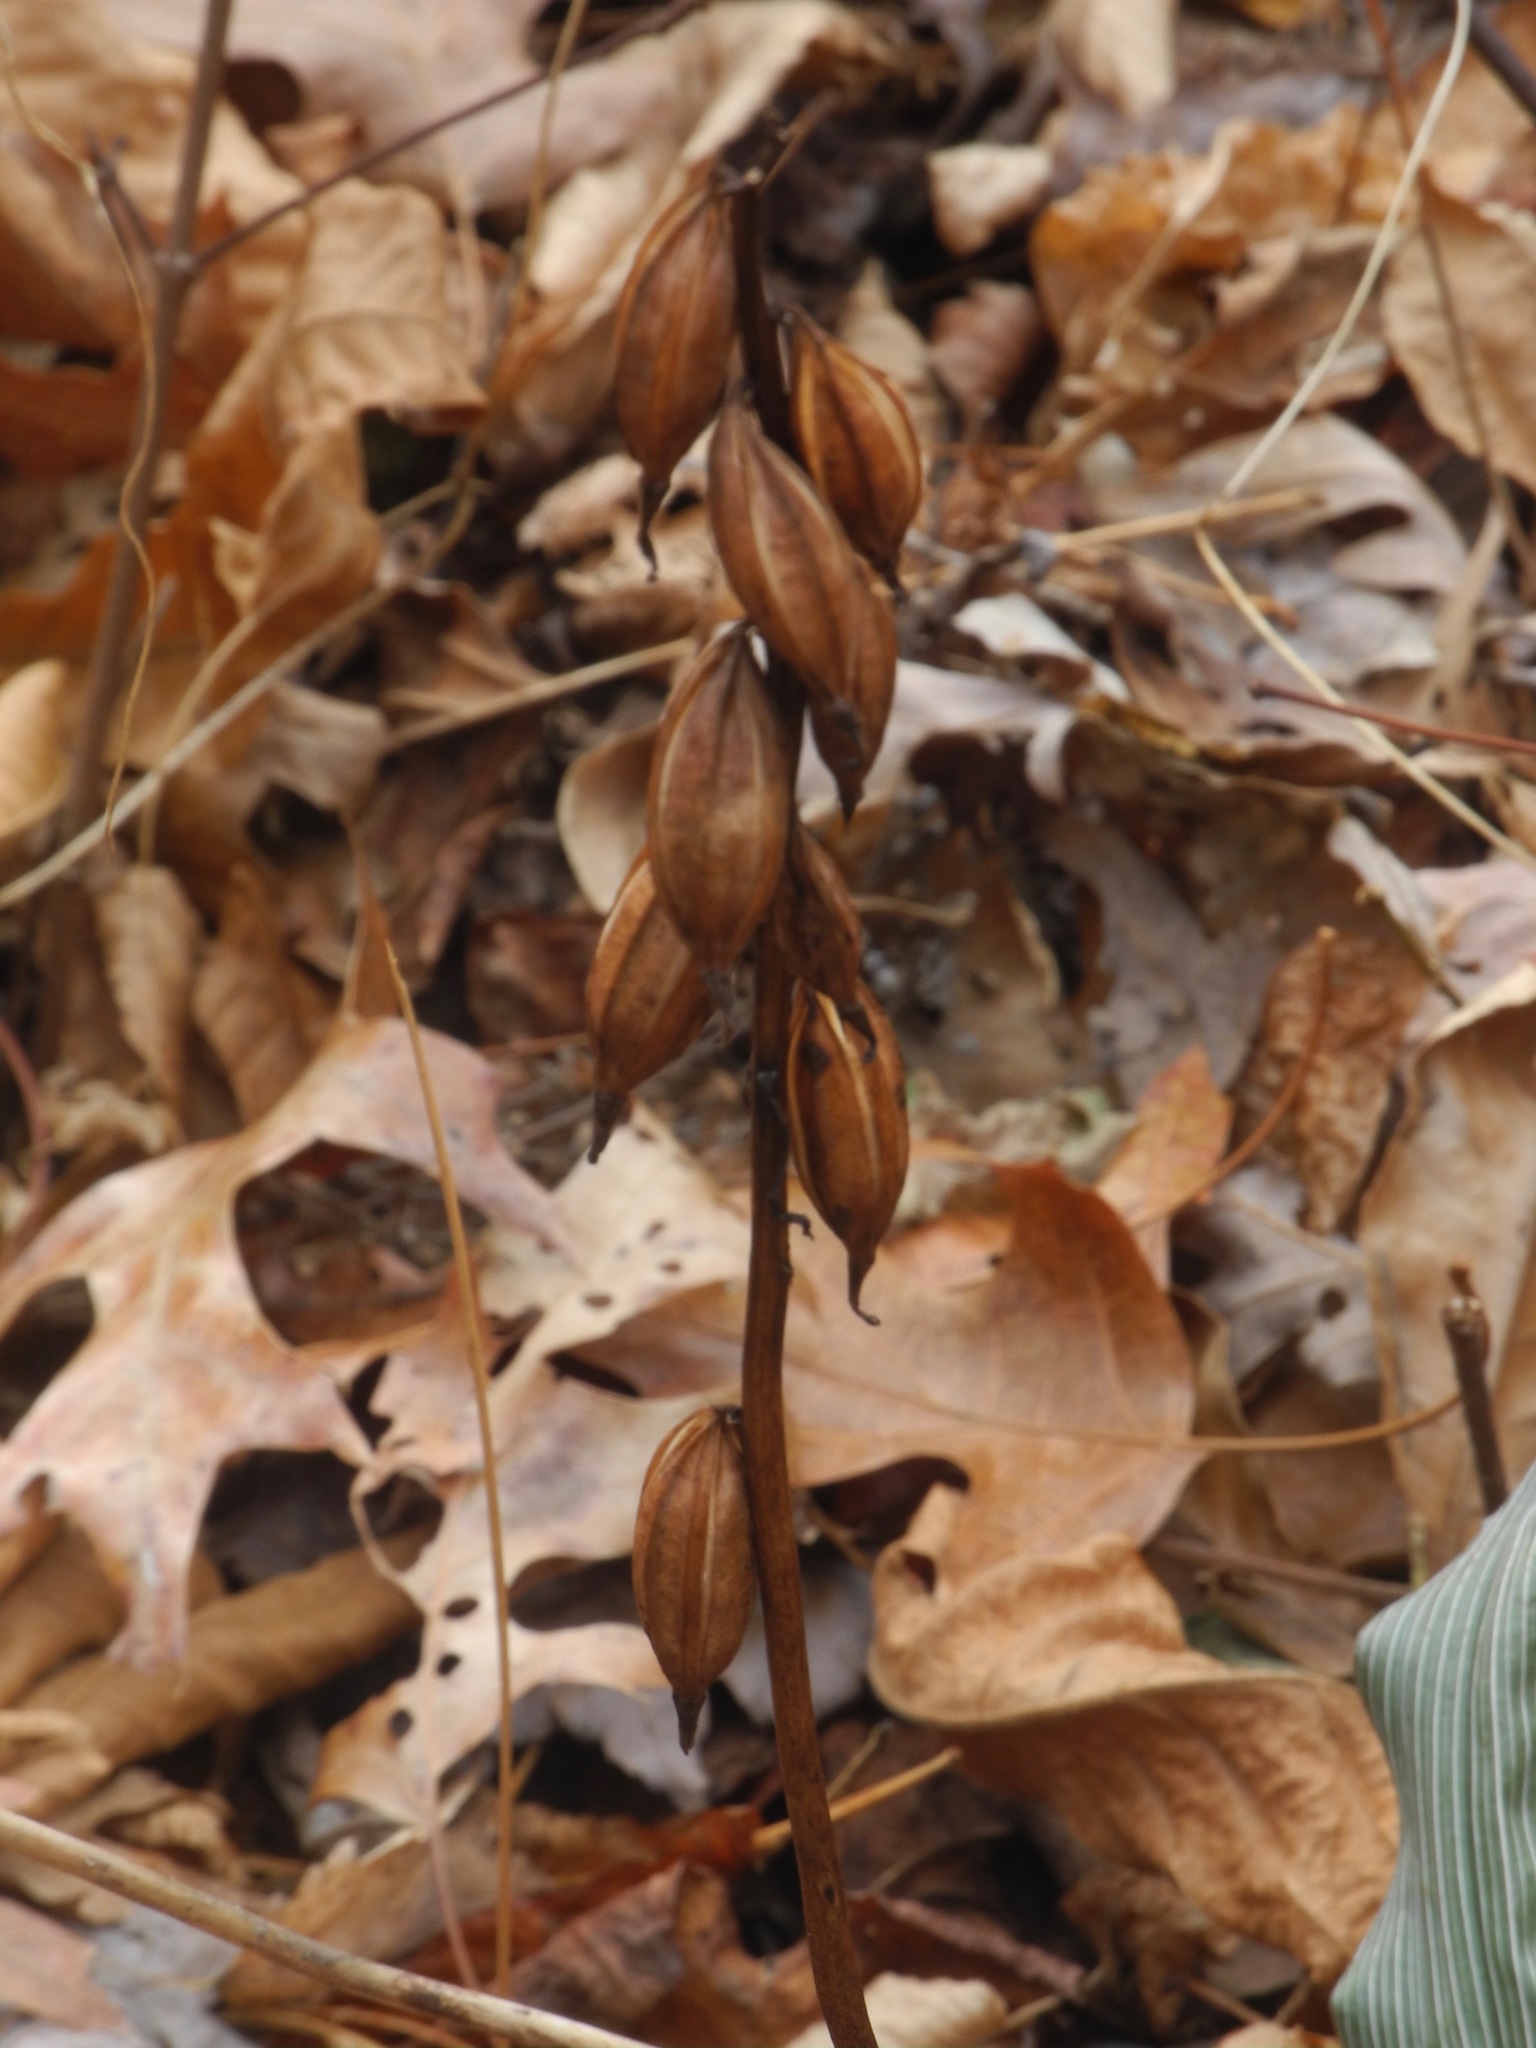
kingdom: Plantae
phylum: Tracheophyta
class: Liliopsida
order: Asparagales
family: Orchidaceae
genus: Aplectrum
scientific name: Aplectrum hyemale
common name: Adam-and-eve
